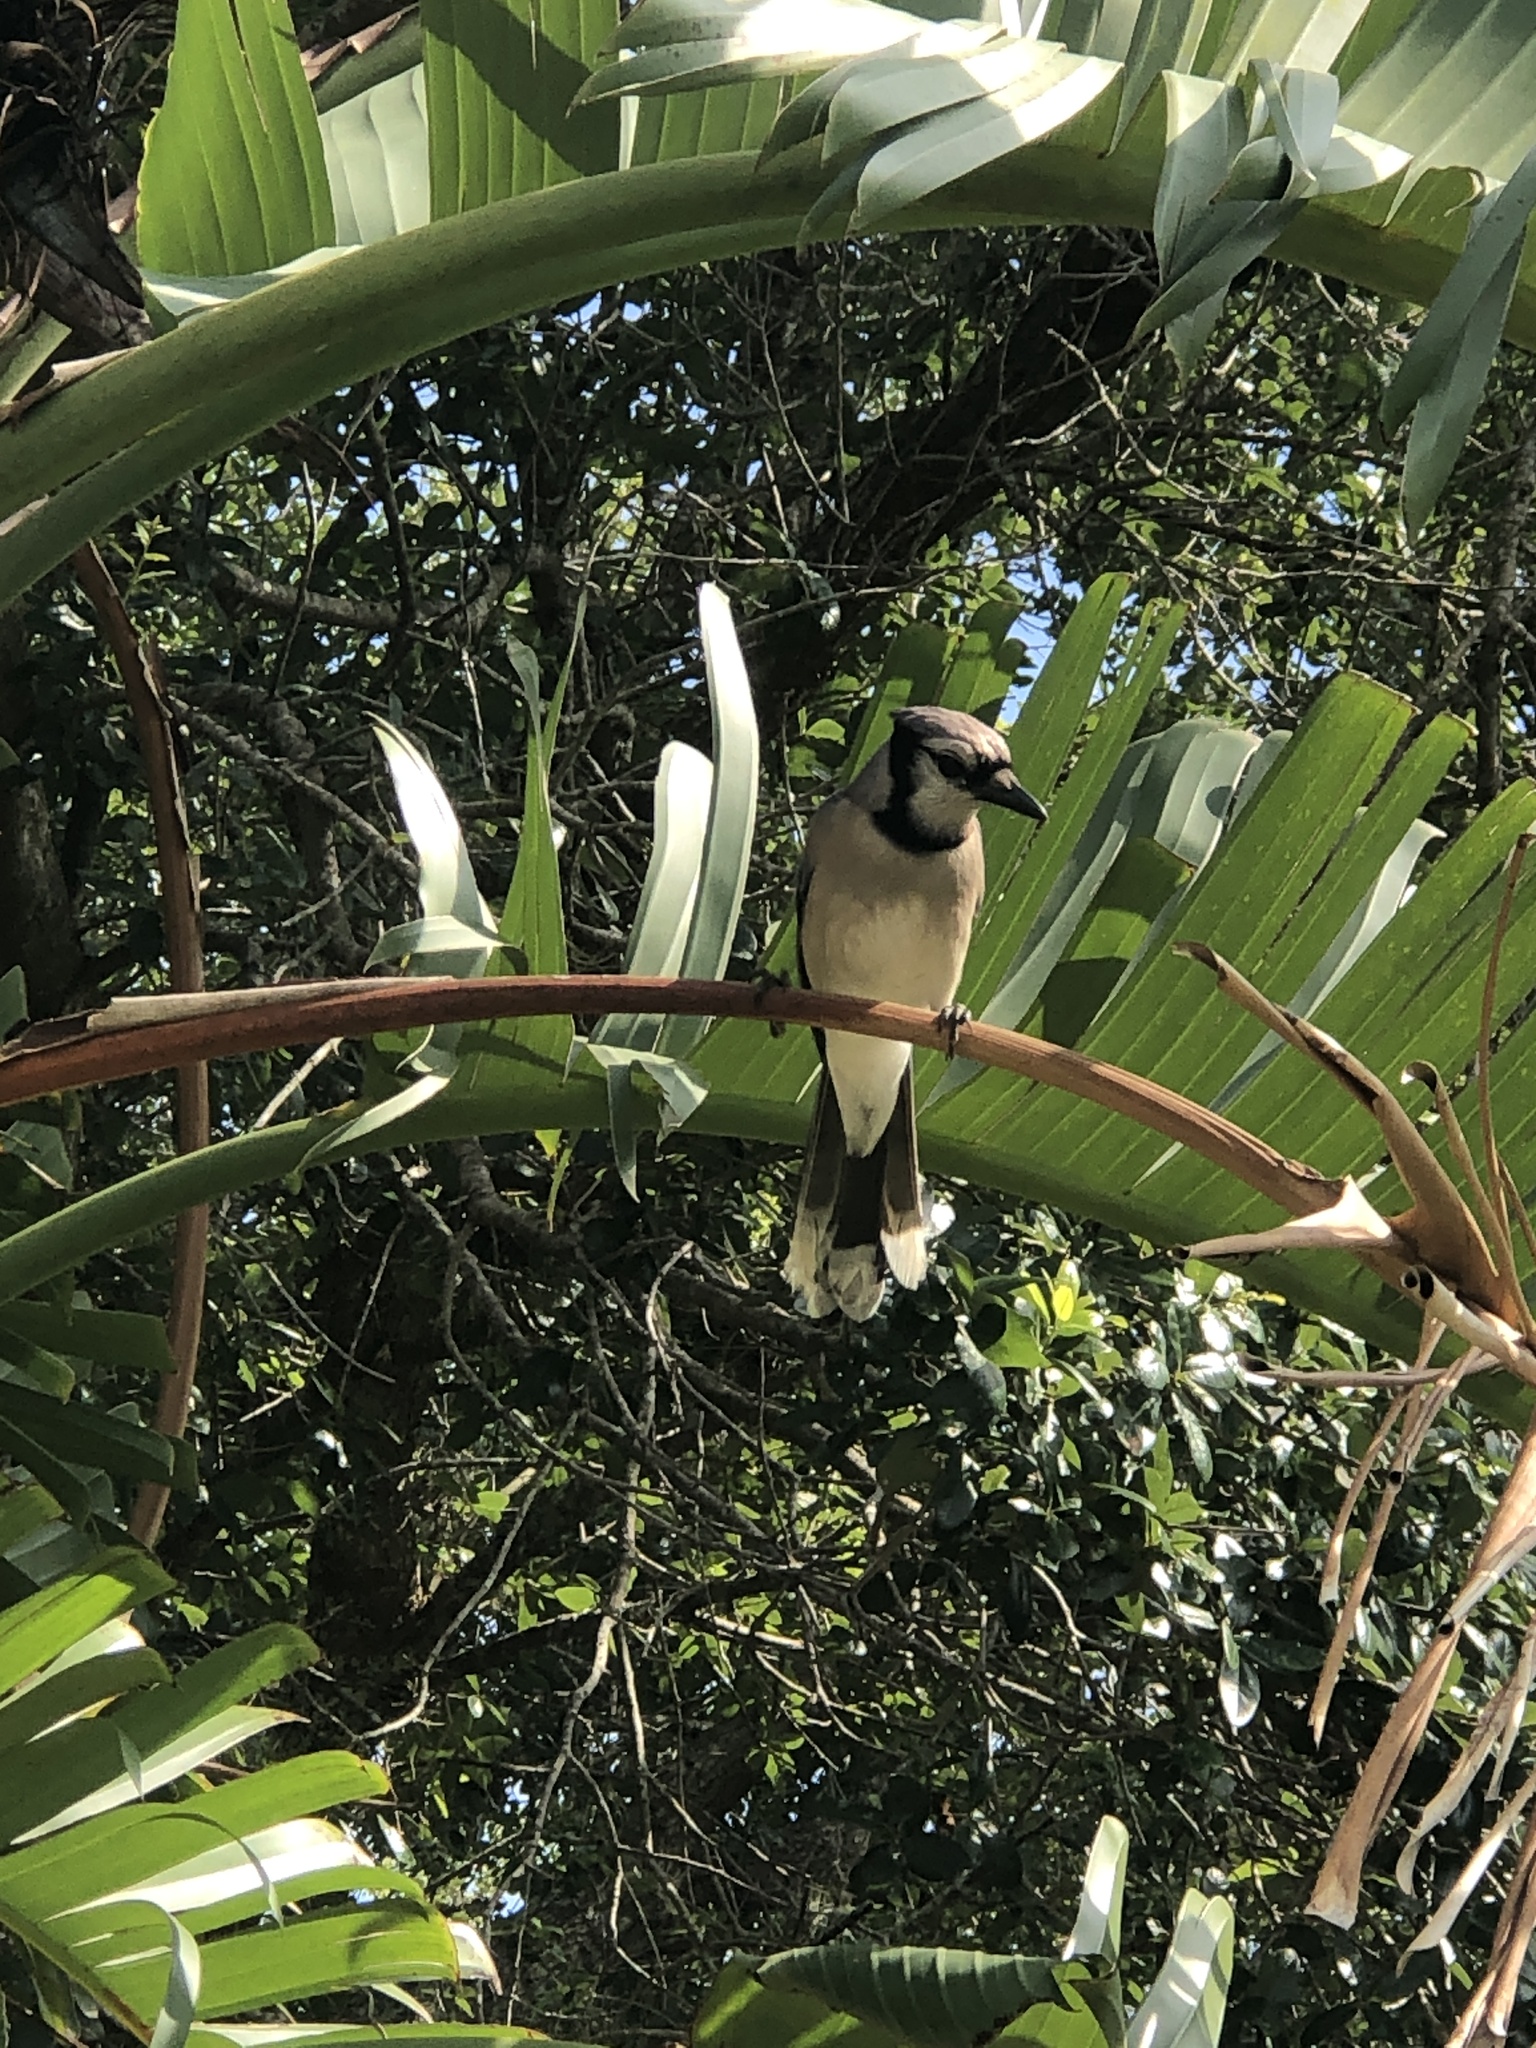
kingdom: Animalia
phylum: Chordata
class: Aves
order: Passeriformes
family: Corvidae
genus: Cyanocitta
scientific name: Cyanocitta cristata
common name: Blue jay
